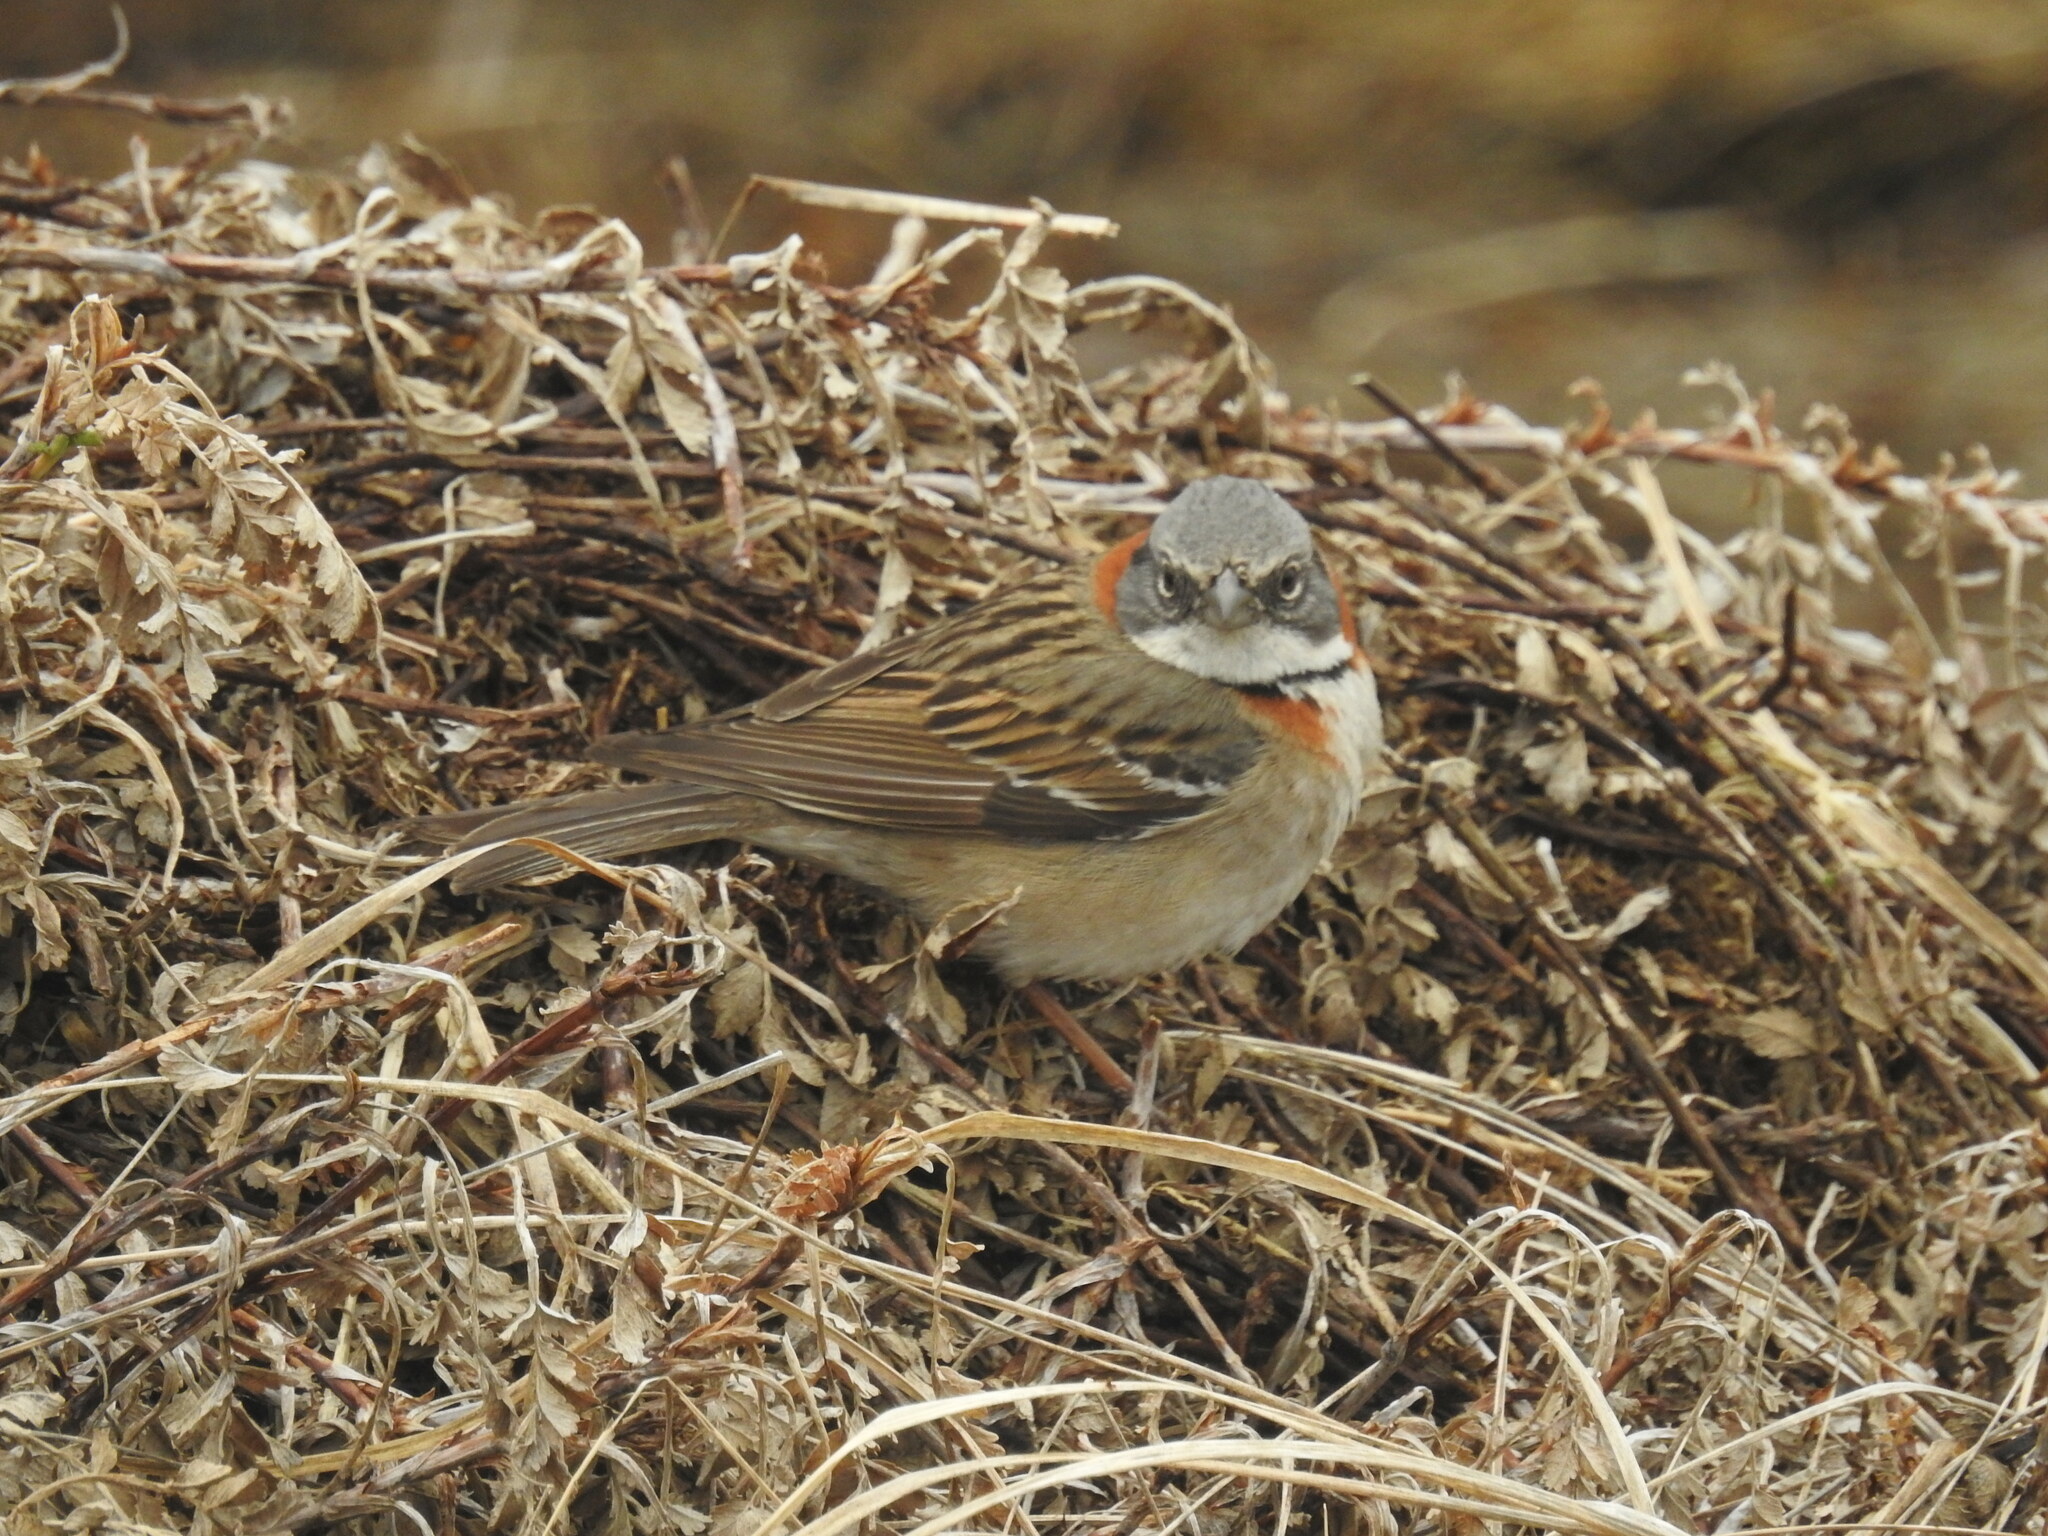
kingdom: Animalia
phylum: Chordata
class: Aves
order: Passeriformes
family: Passerellidae
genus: Zonotrichia
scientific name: Zonotrichia capensis
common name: Rufous-collared sparrow
